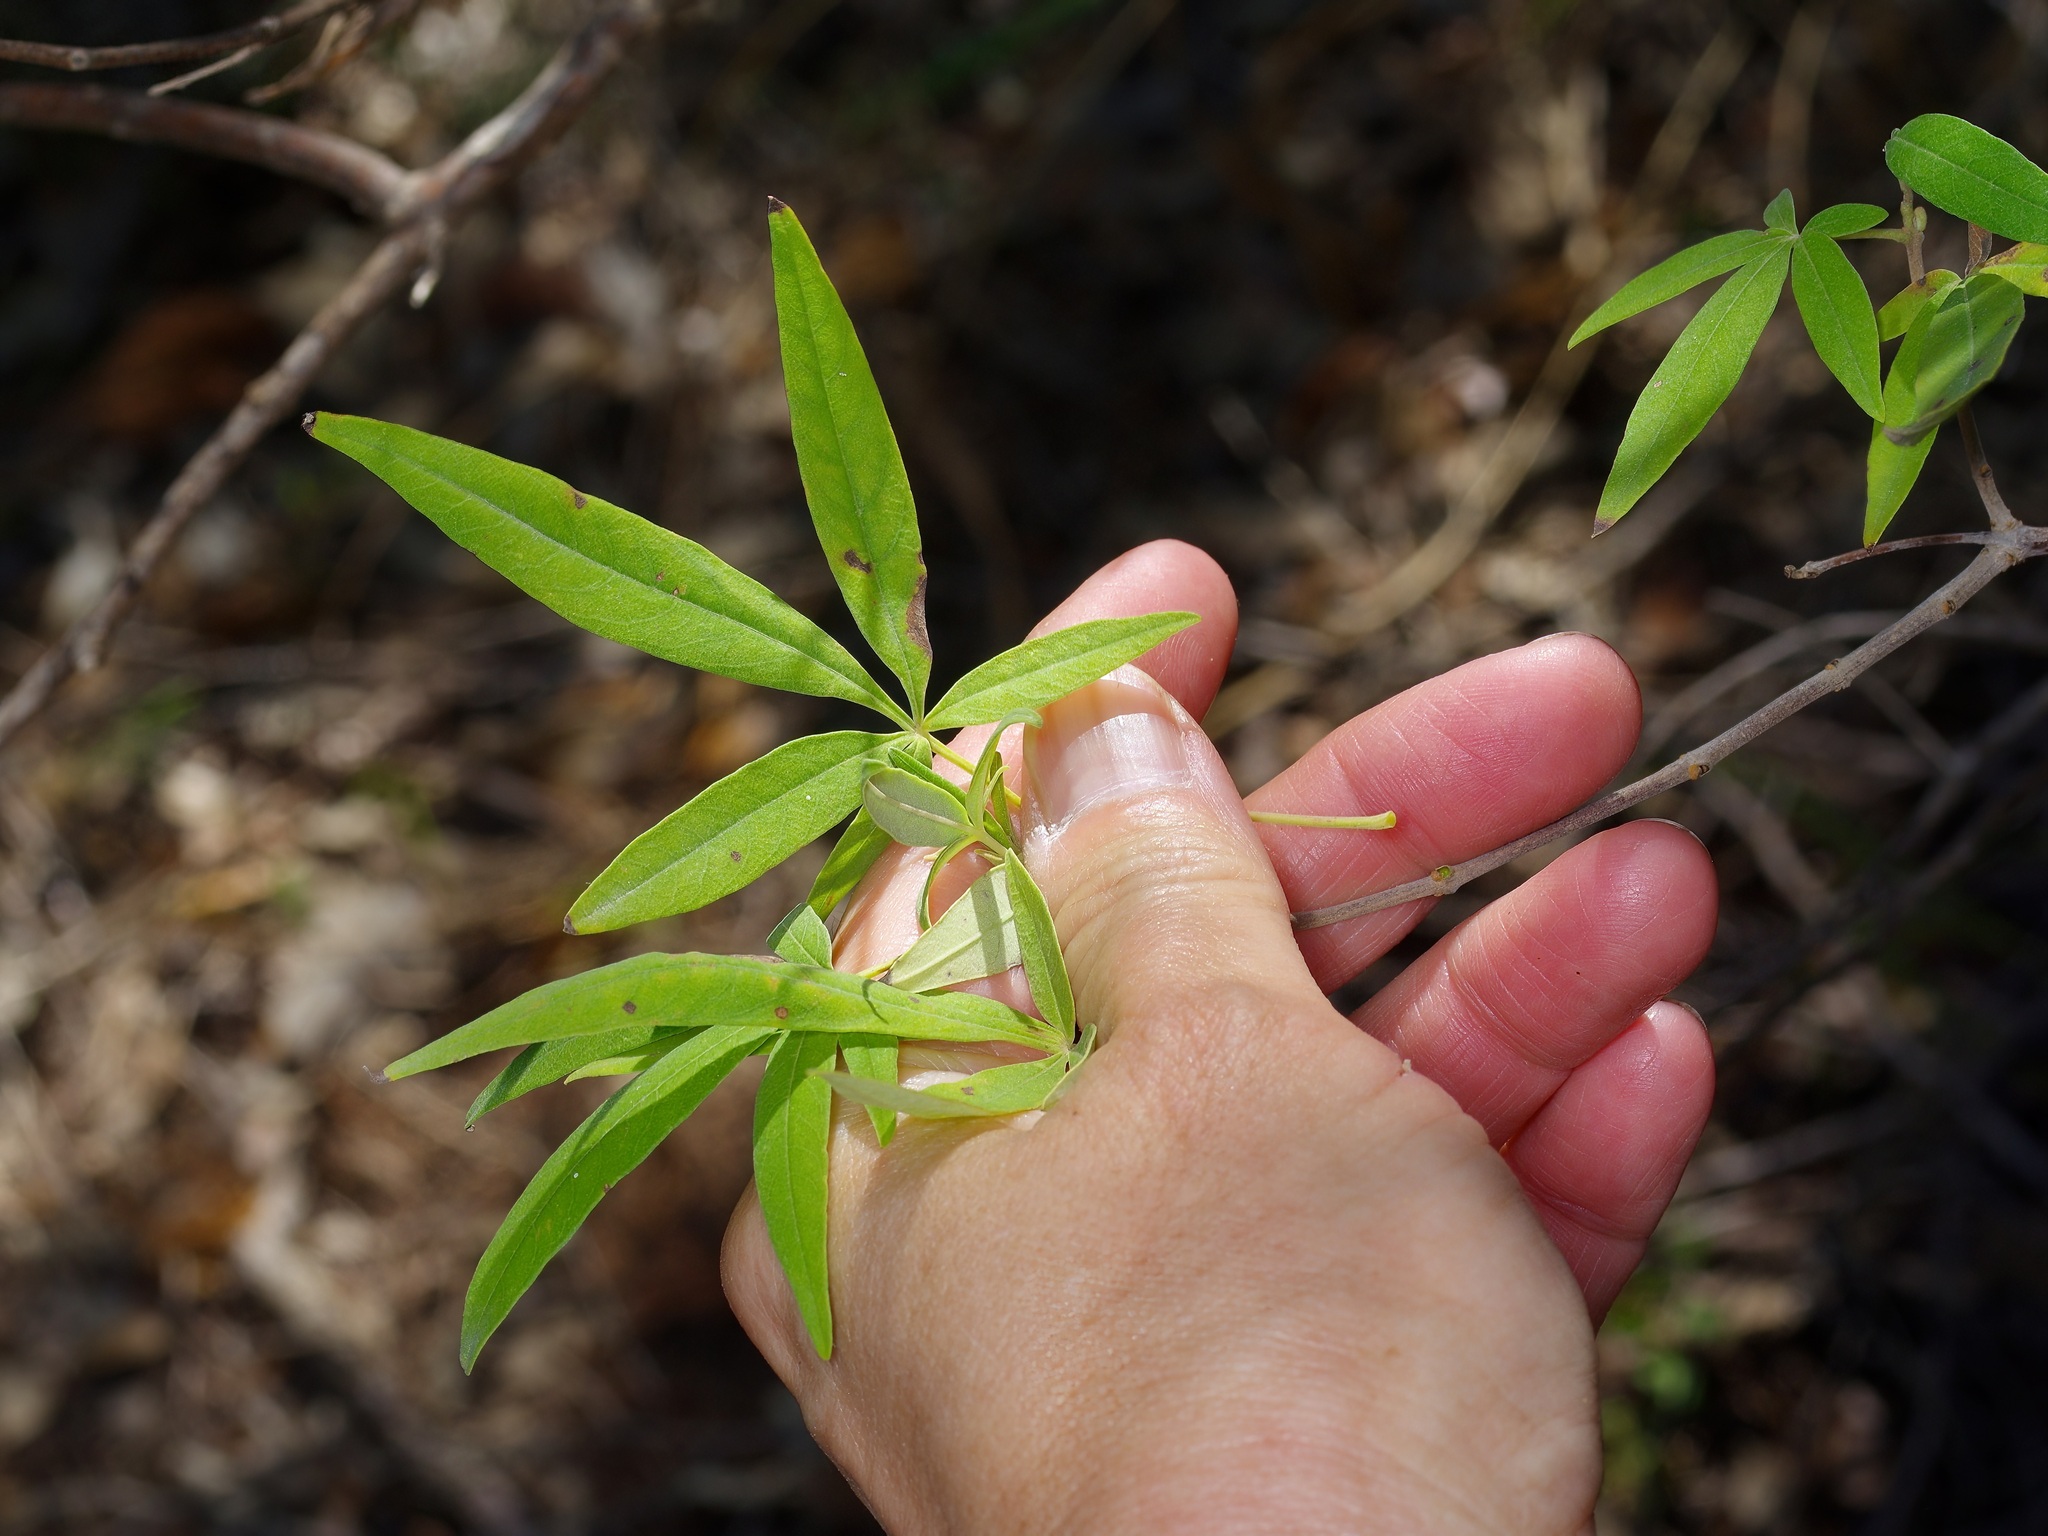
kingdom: Plantae
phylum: Tracheophyta
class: Magnoliopsida
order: Lamiales
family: Lamiaceae
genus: Vitex
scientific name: Vitex agnus-castus
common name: Chasteberry
